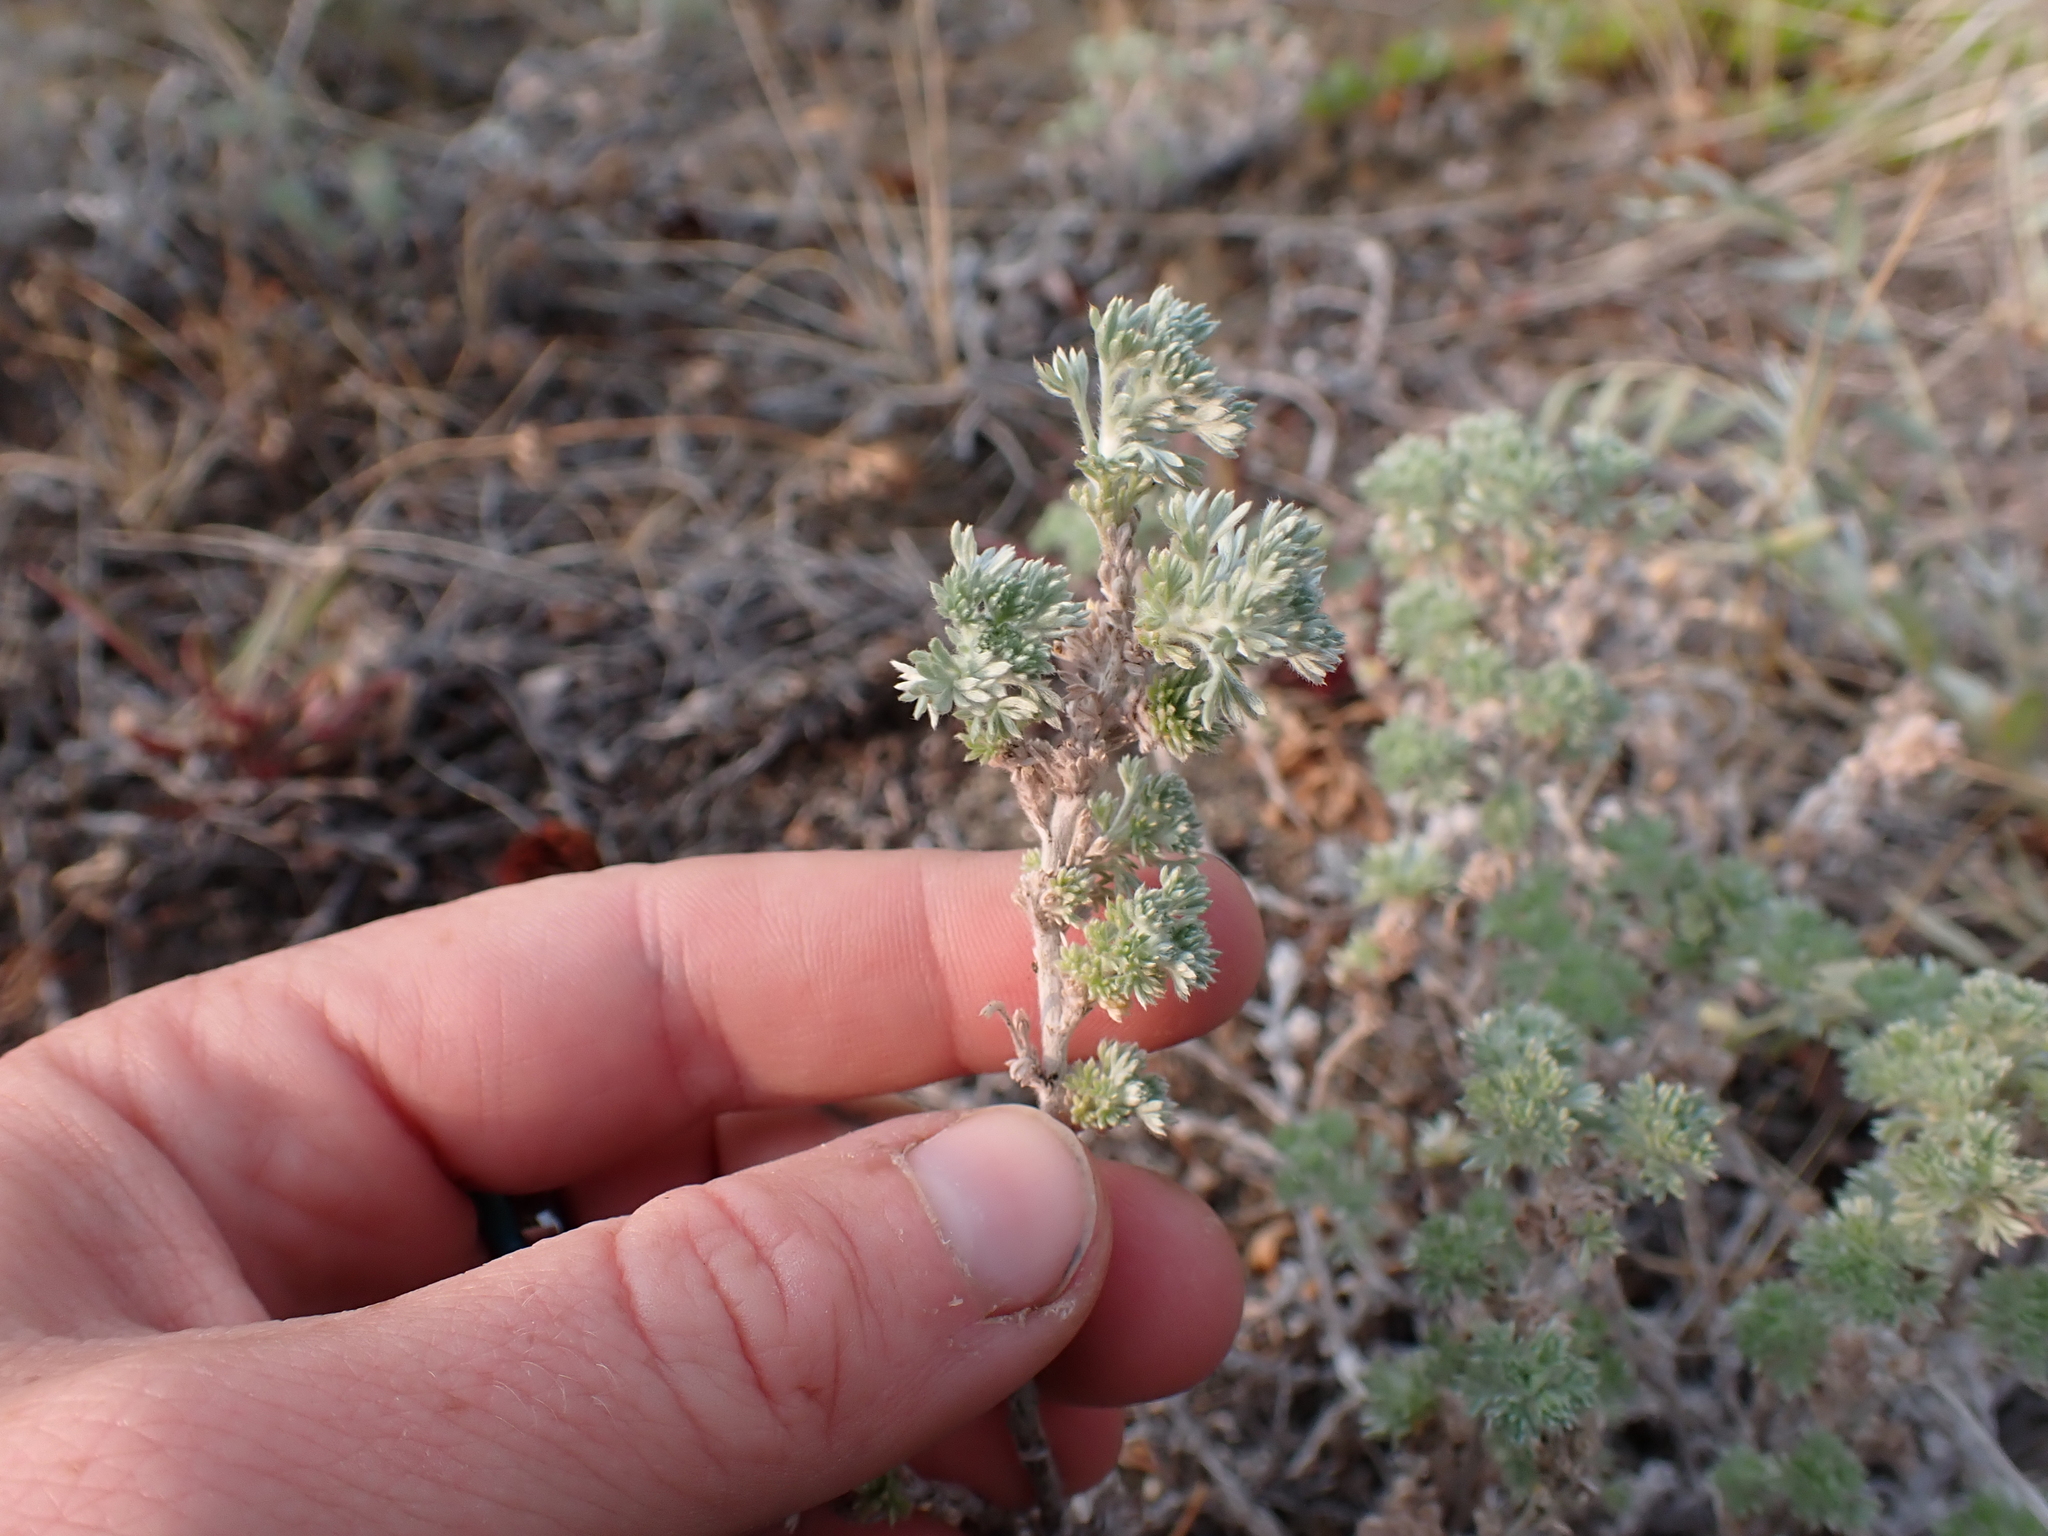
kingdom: Plantae
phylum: Tracheophyta
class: Magnoliopsida
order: Asterales
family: Asteraceae
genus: Artemisia
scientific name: Artemisia frigida
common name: Prairie sagewort
